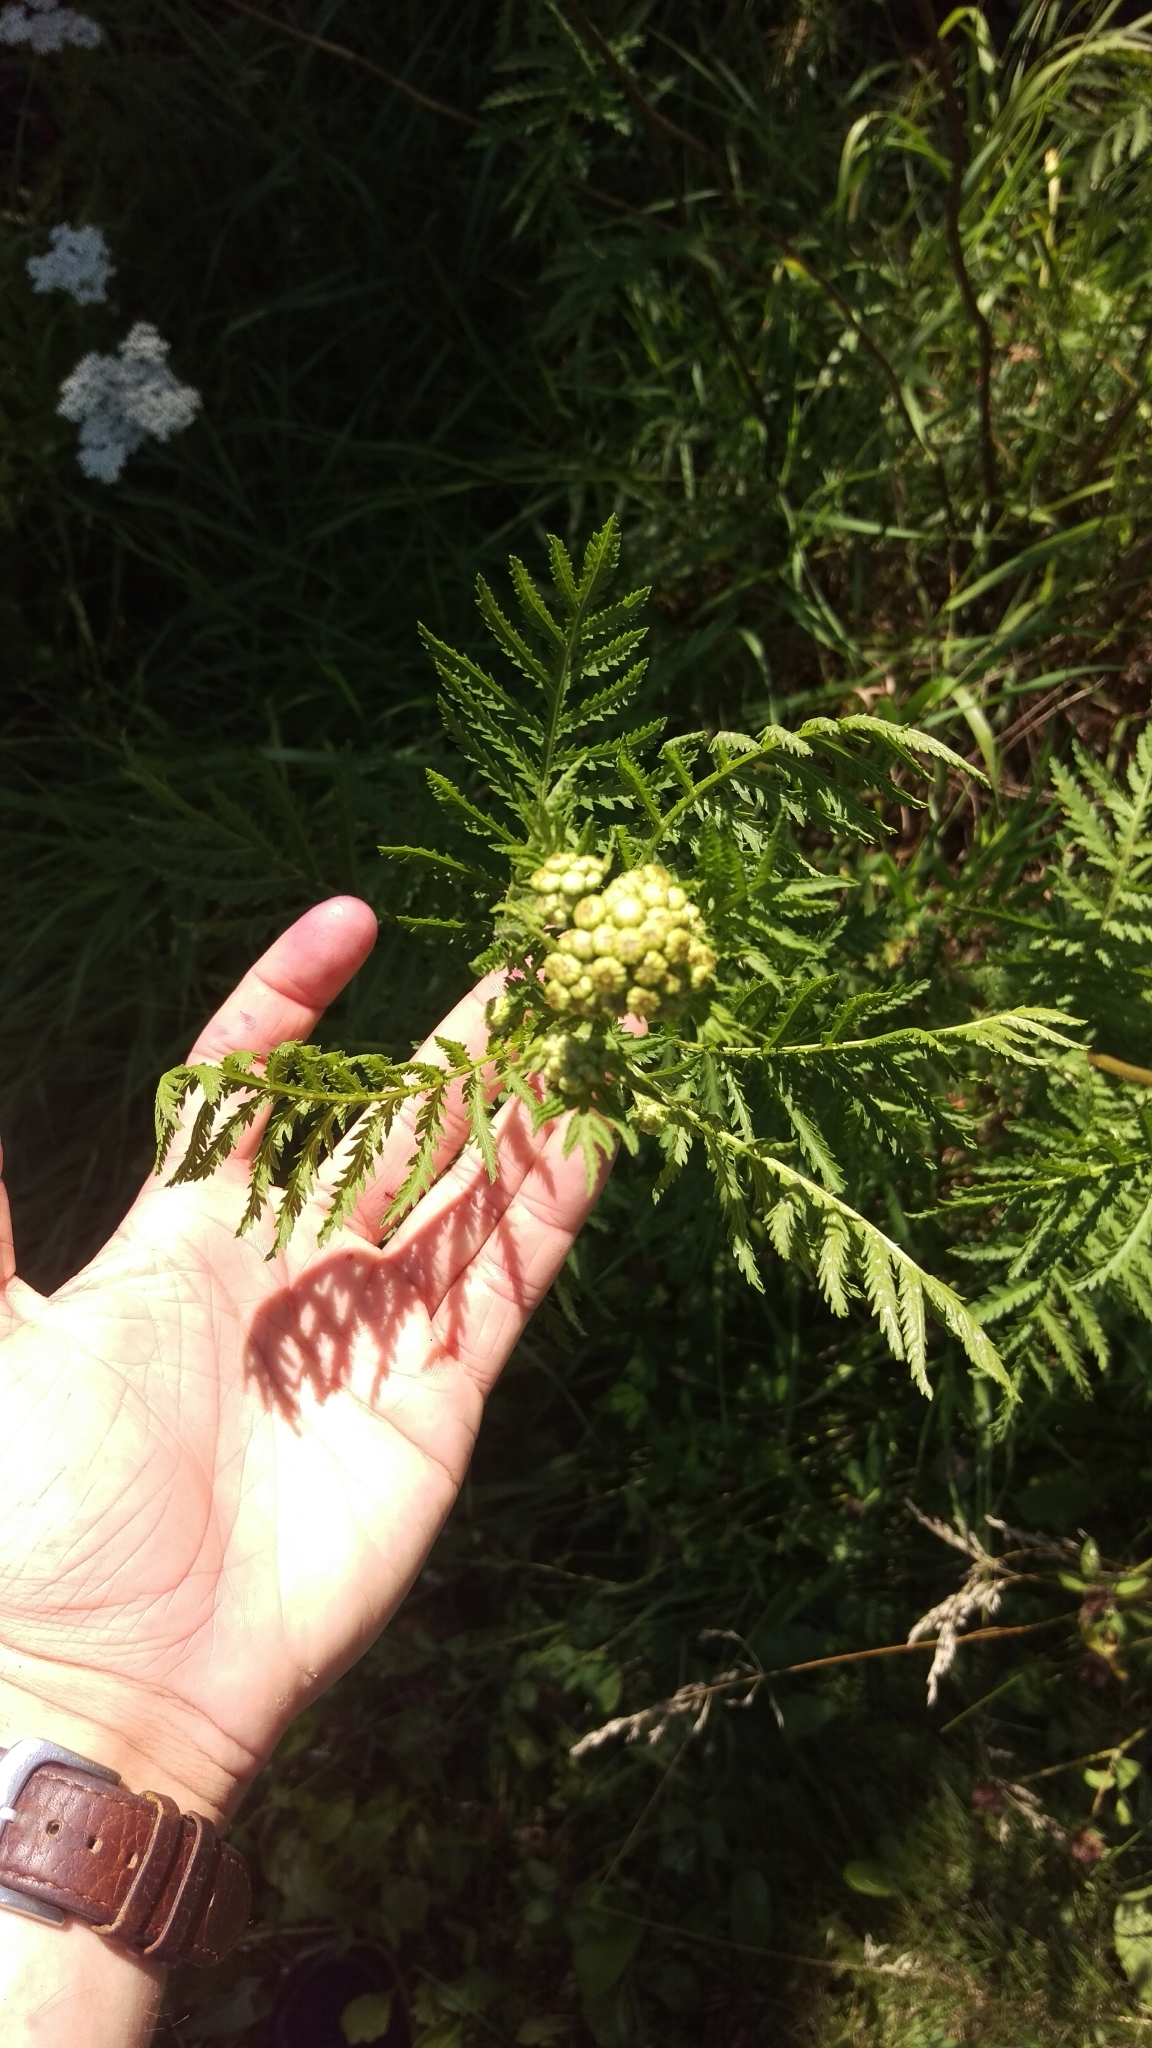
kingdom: Plantae
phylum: Tracheophyta
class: Magnoliopsida
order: Asterales
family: Asteraceae
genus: Tanacetum
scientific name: Tanacetum vulgare
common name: Common tansy
